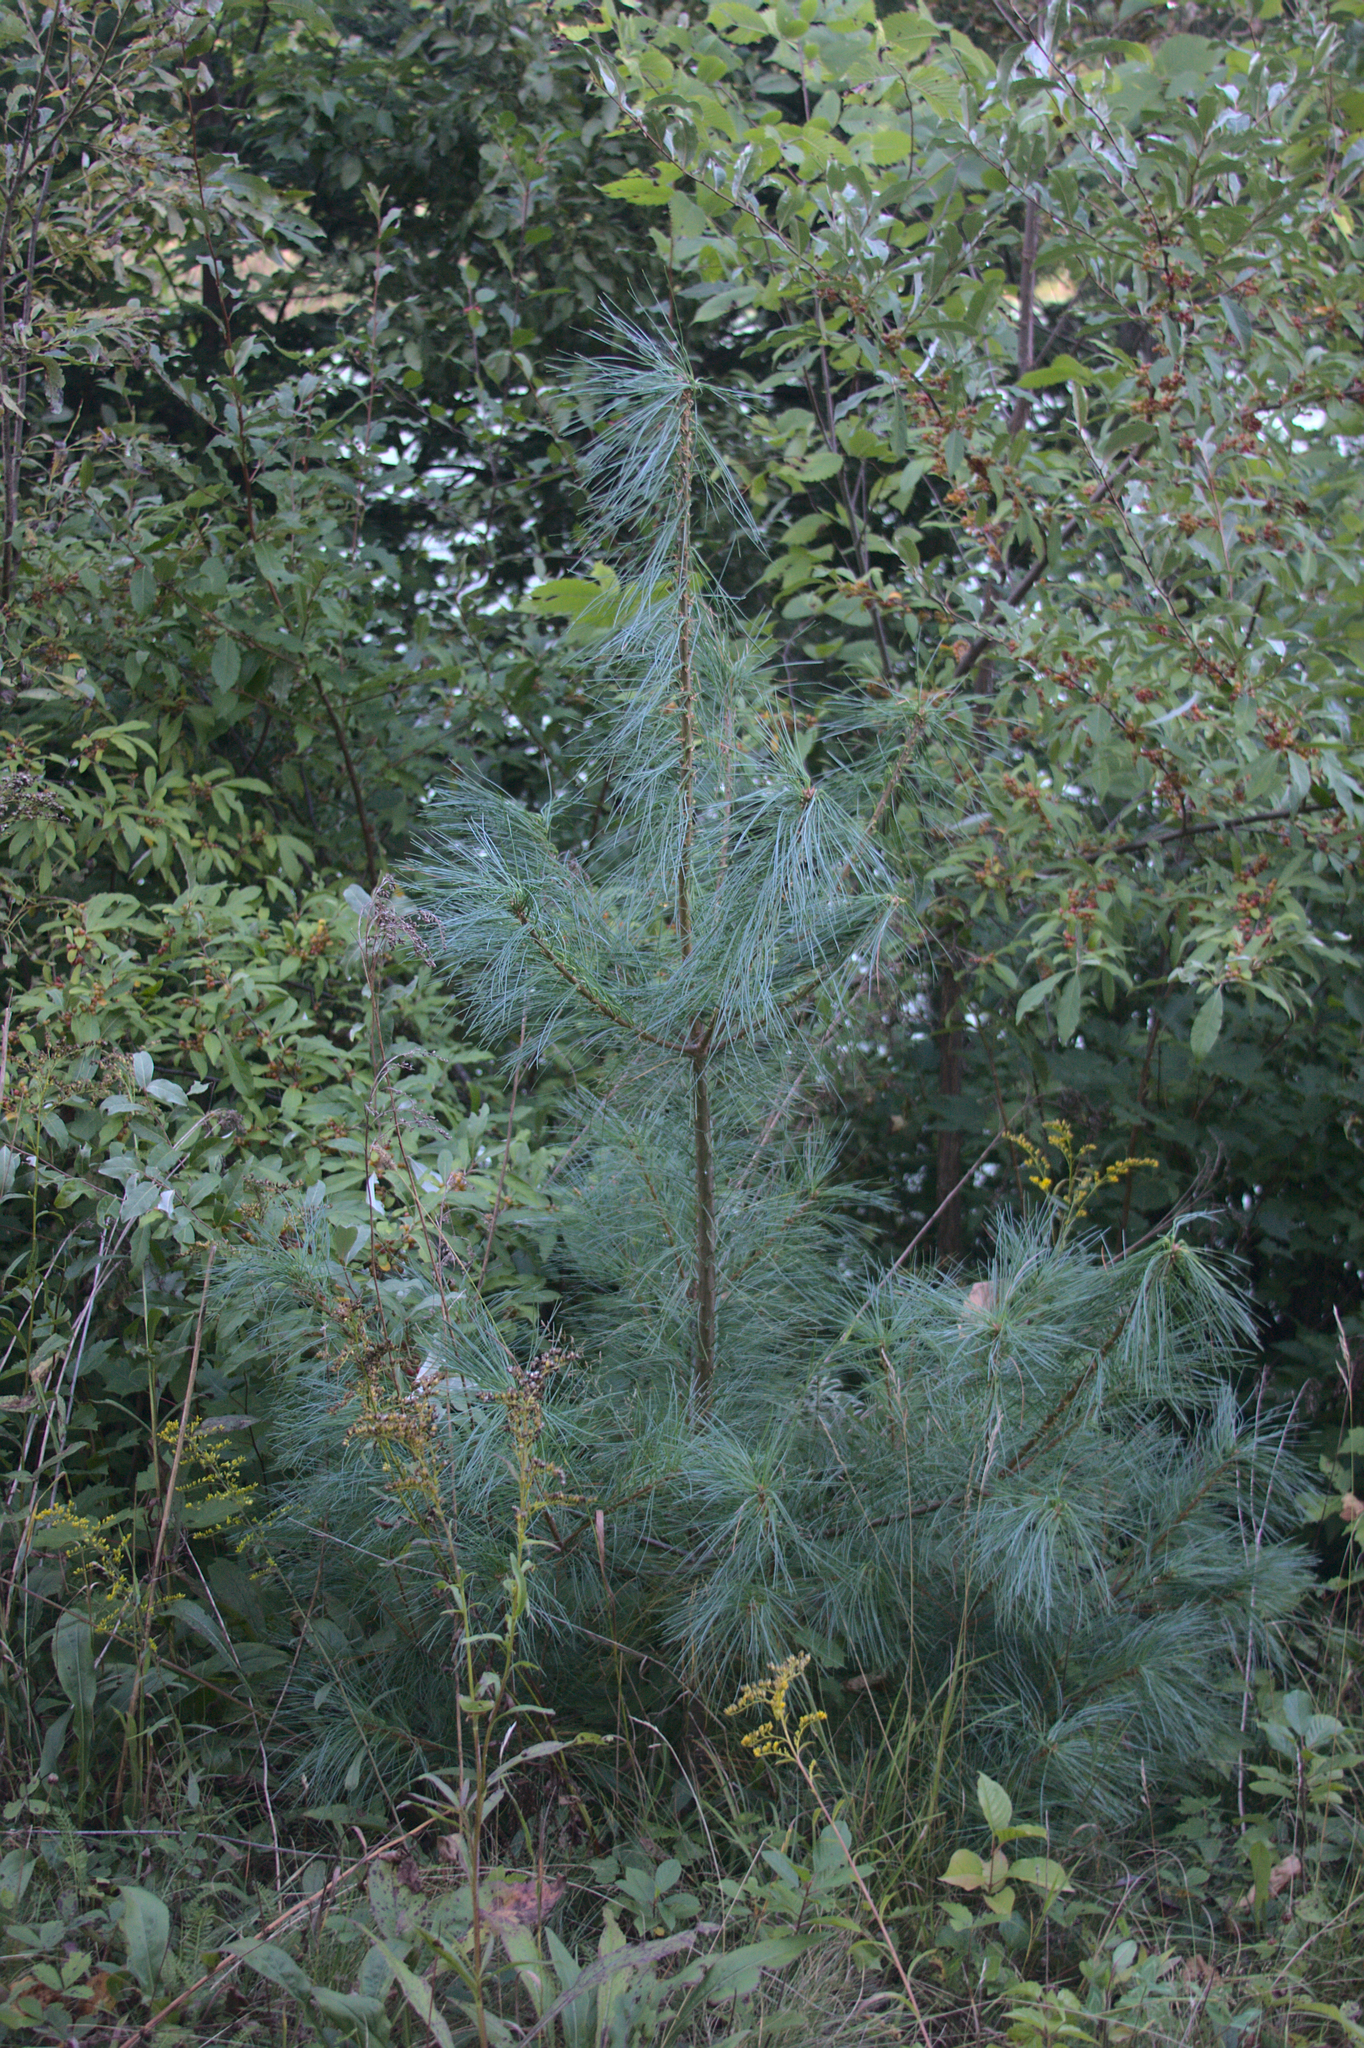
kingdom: Plantae
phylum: Tracheophyta
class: Pinopsida
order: Pinales
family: Pinaceae
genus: Pinus
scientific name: Pinus strobus
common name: Weymouth pine
